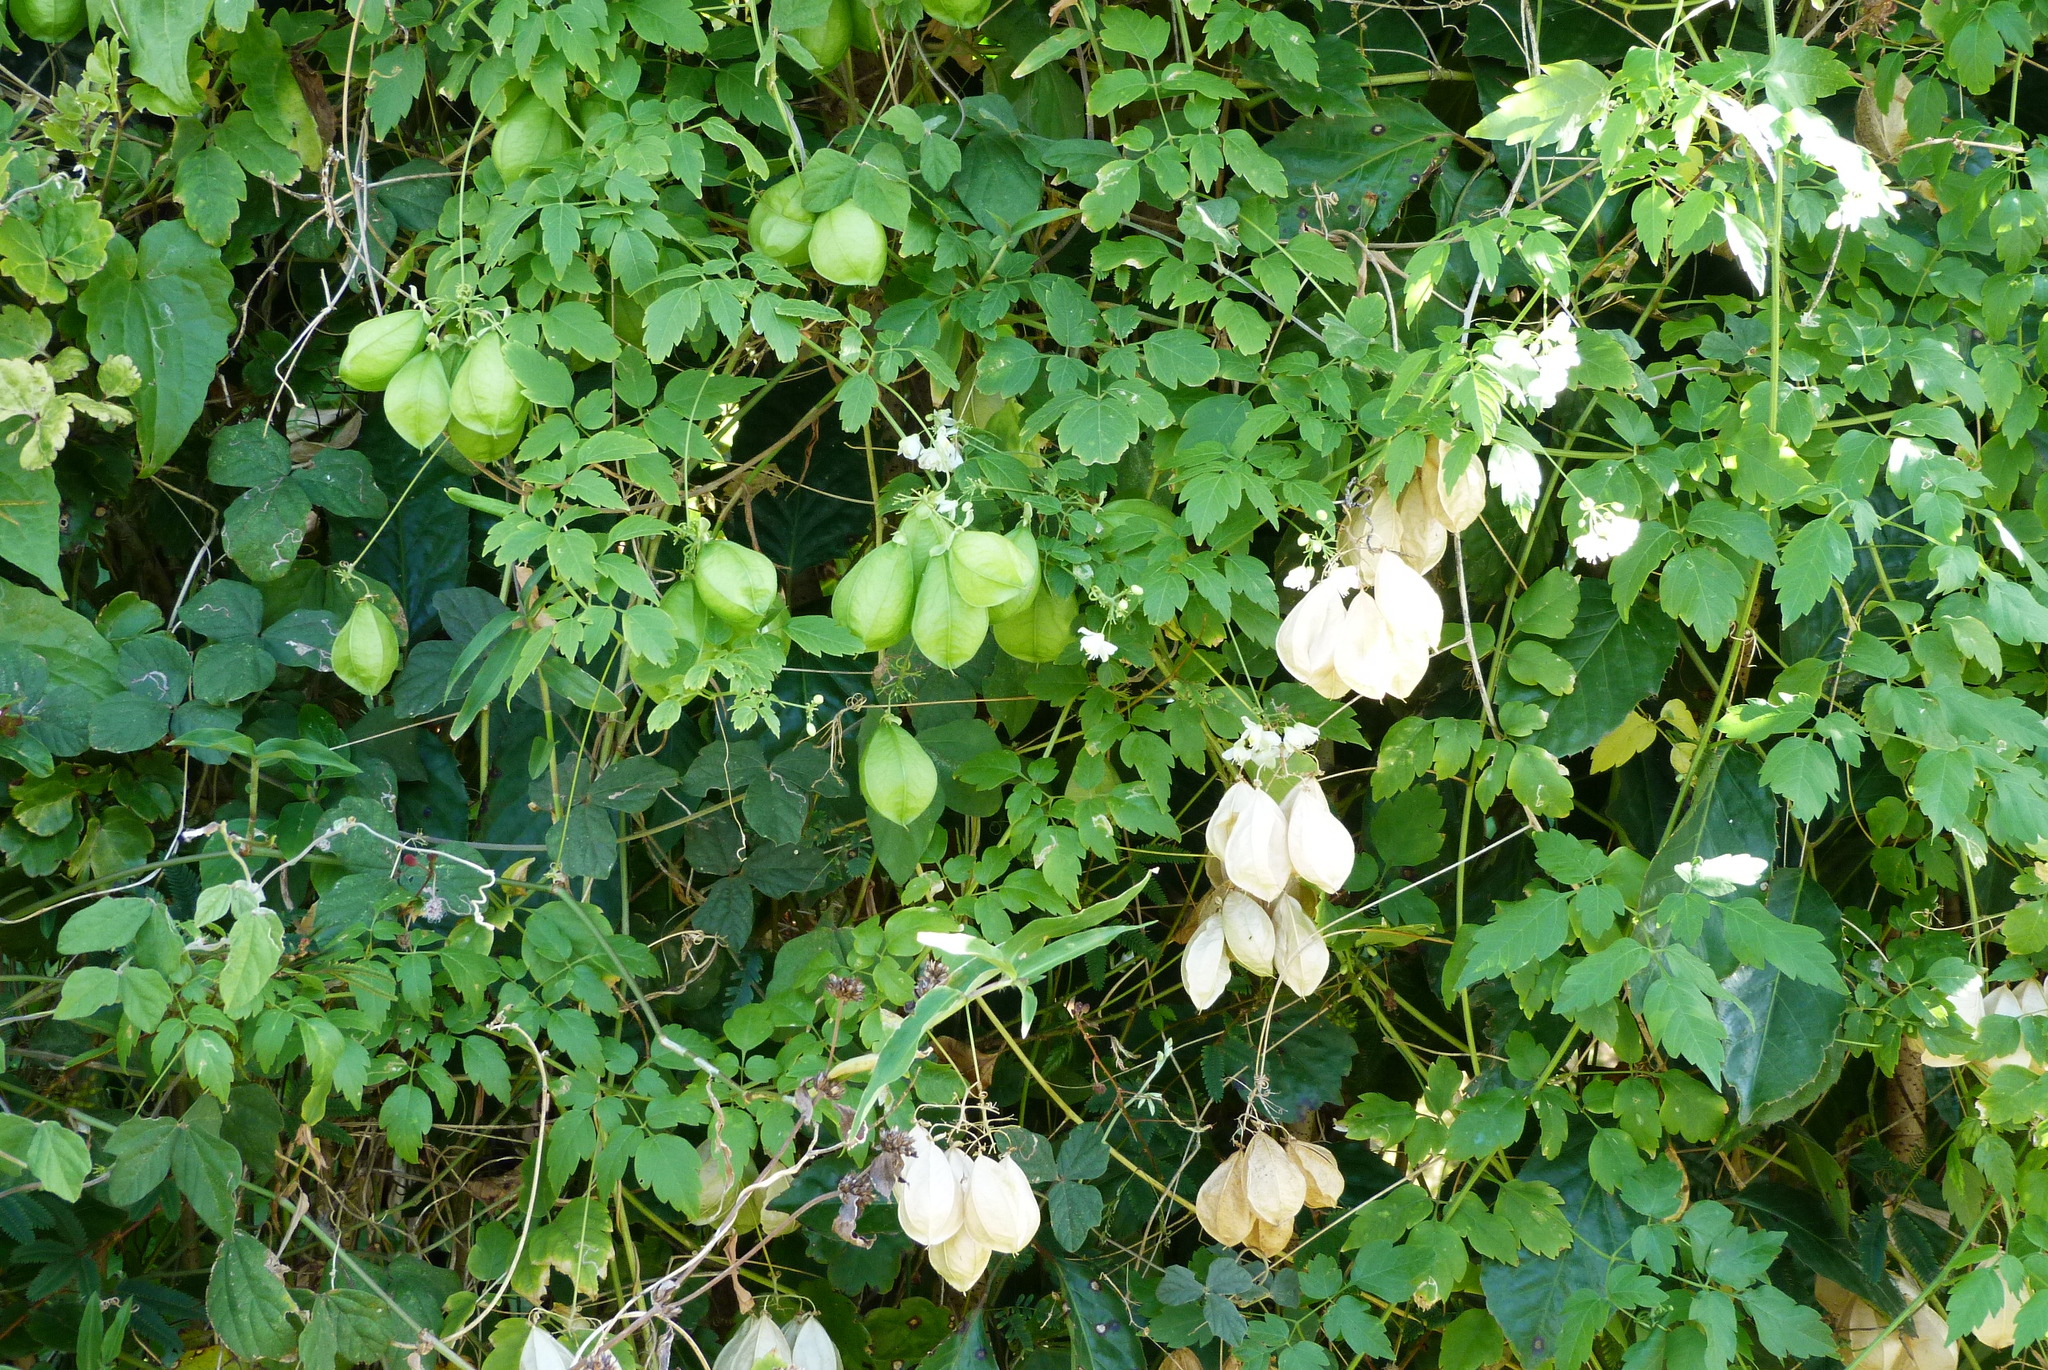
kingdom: Plantae
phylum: Tracheophyta
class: Magnoliopsida
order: Sapindales
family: Sapindaceae
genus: Cardiospermum
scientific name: Cardiospermum grandiflorum
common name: Balloon vine
